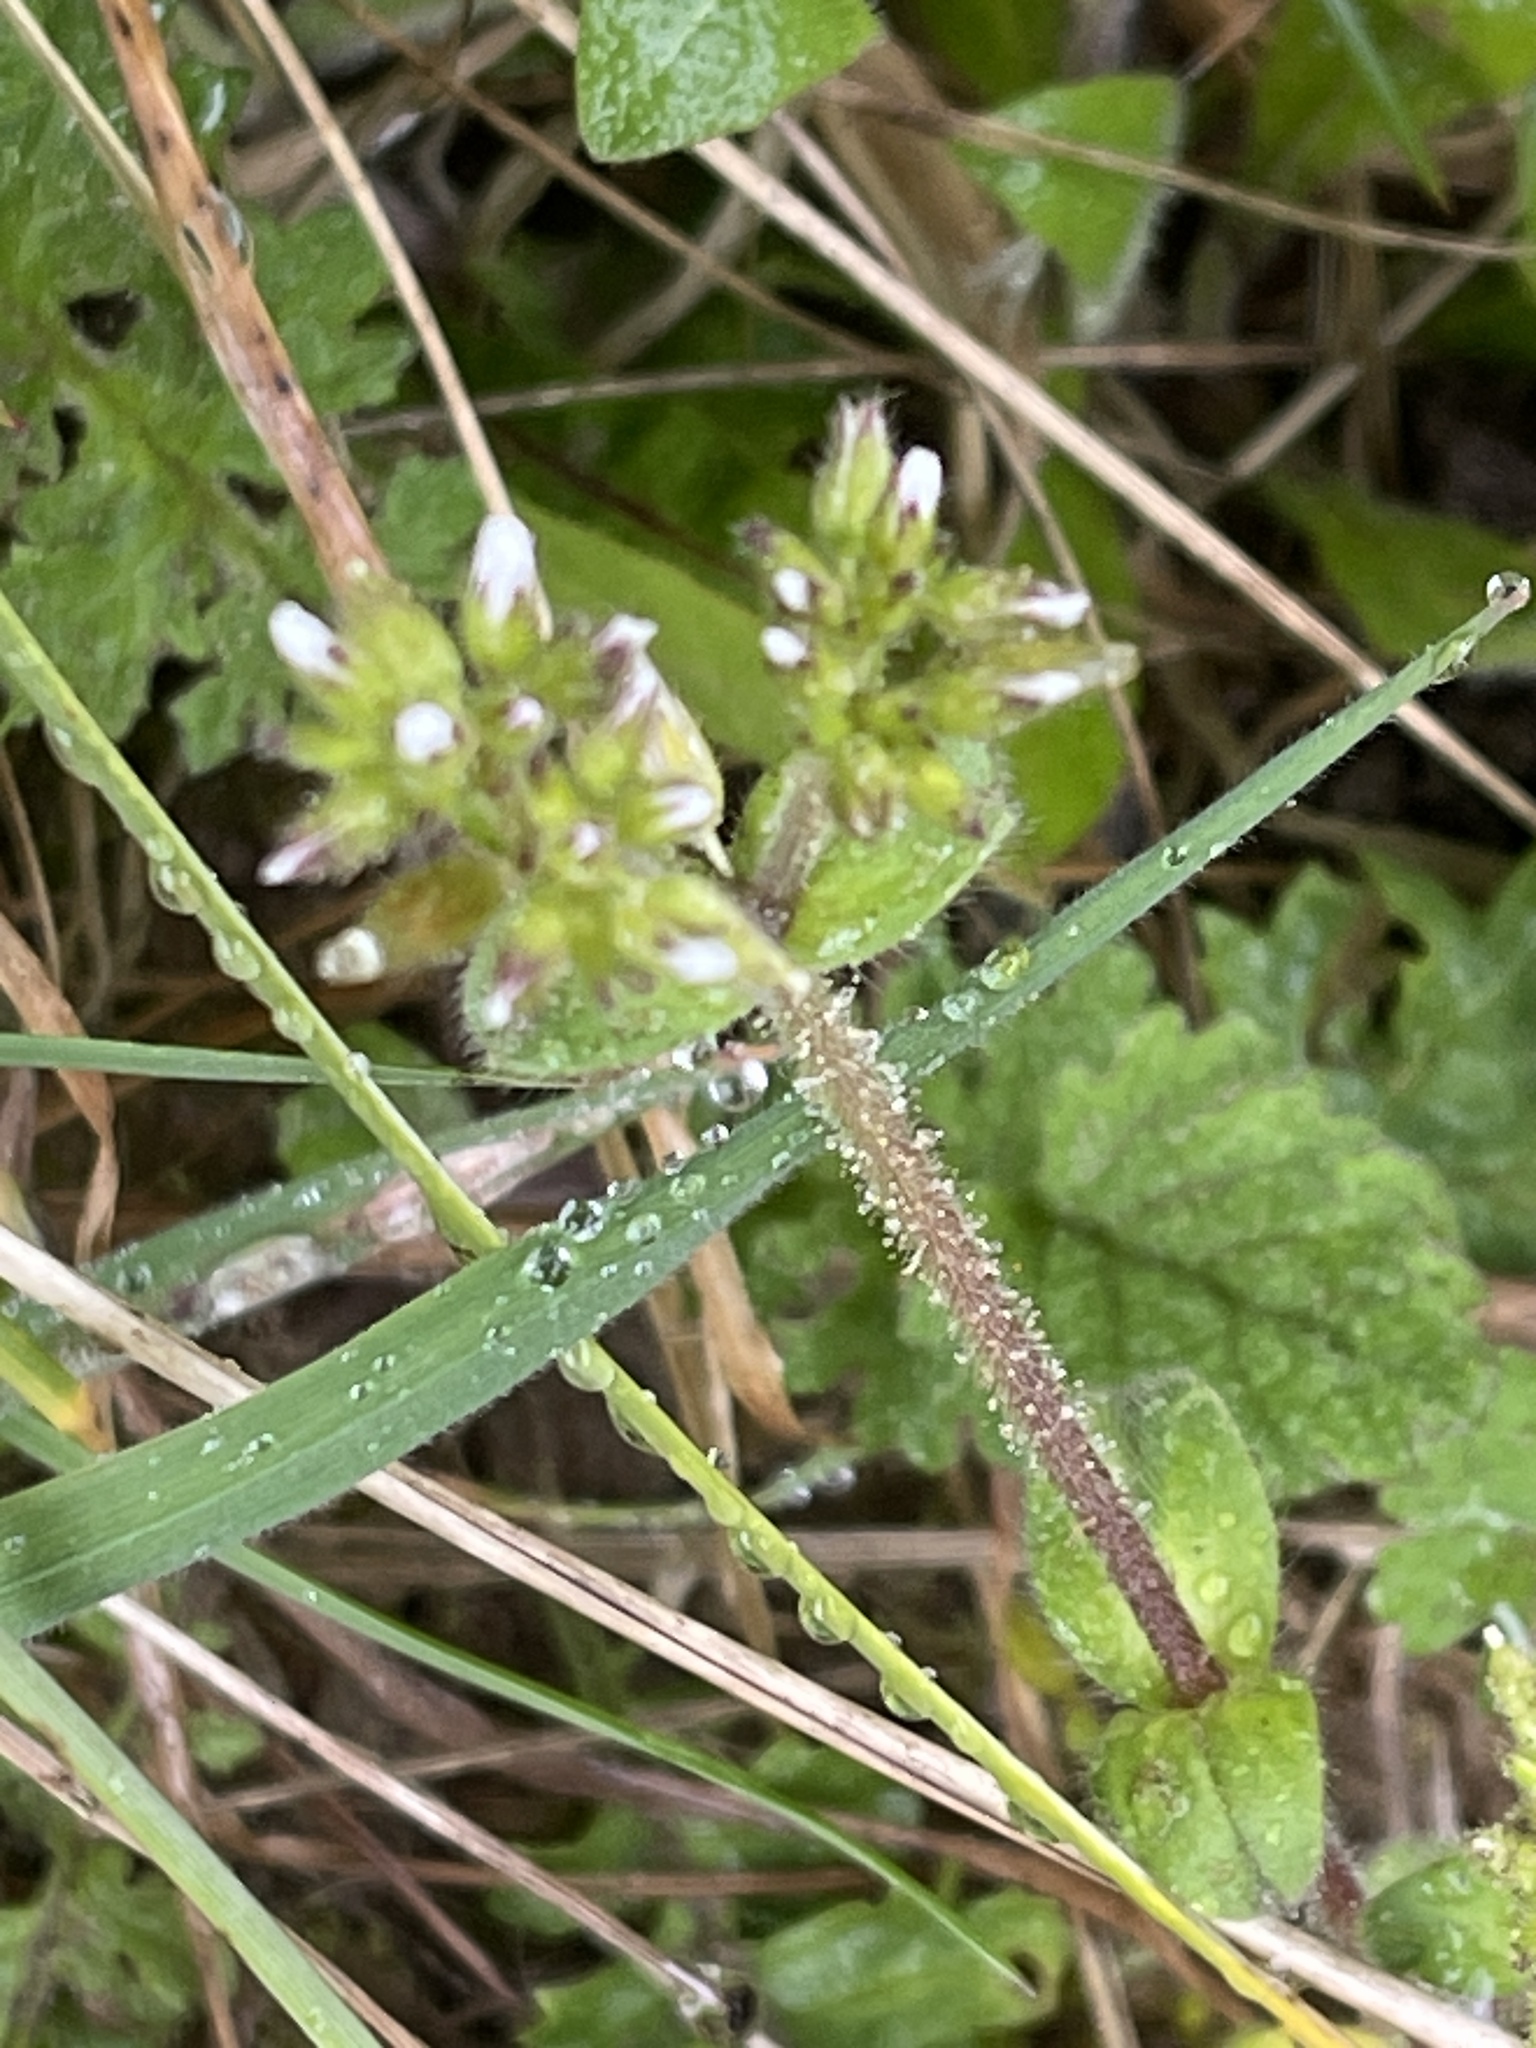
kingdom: Plantae
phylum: Tracheophyta
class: Magnoliopsida
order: Caryophyllales
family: Caryophyllaceae
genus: Cerastium
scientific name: Cerastium glomeratum
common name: Sticky chickweed
